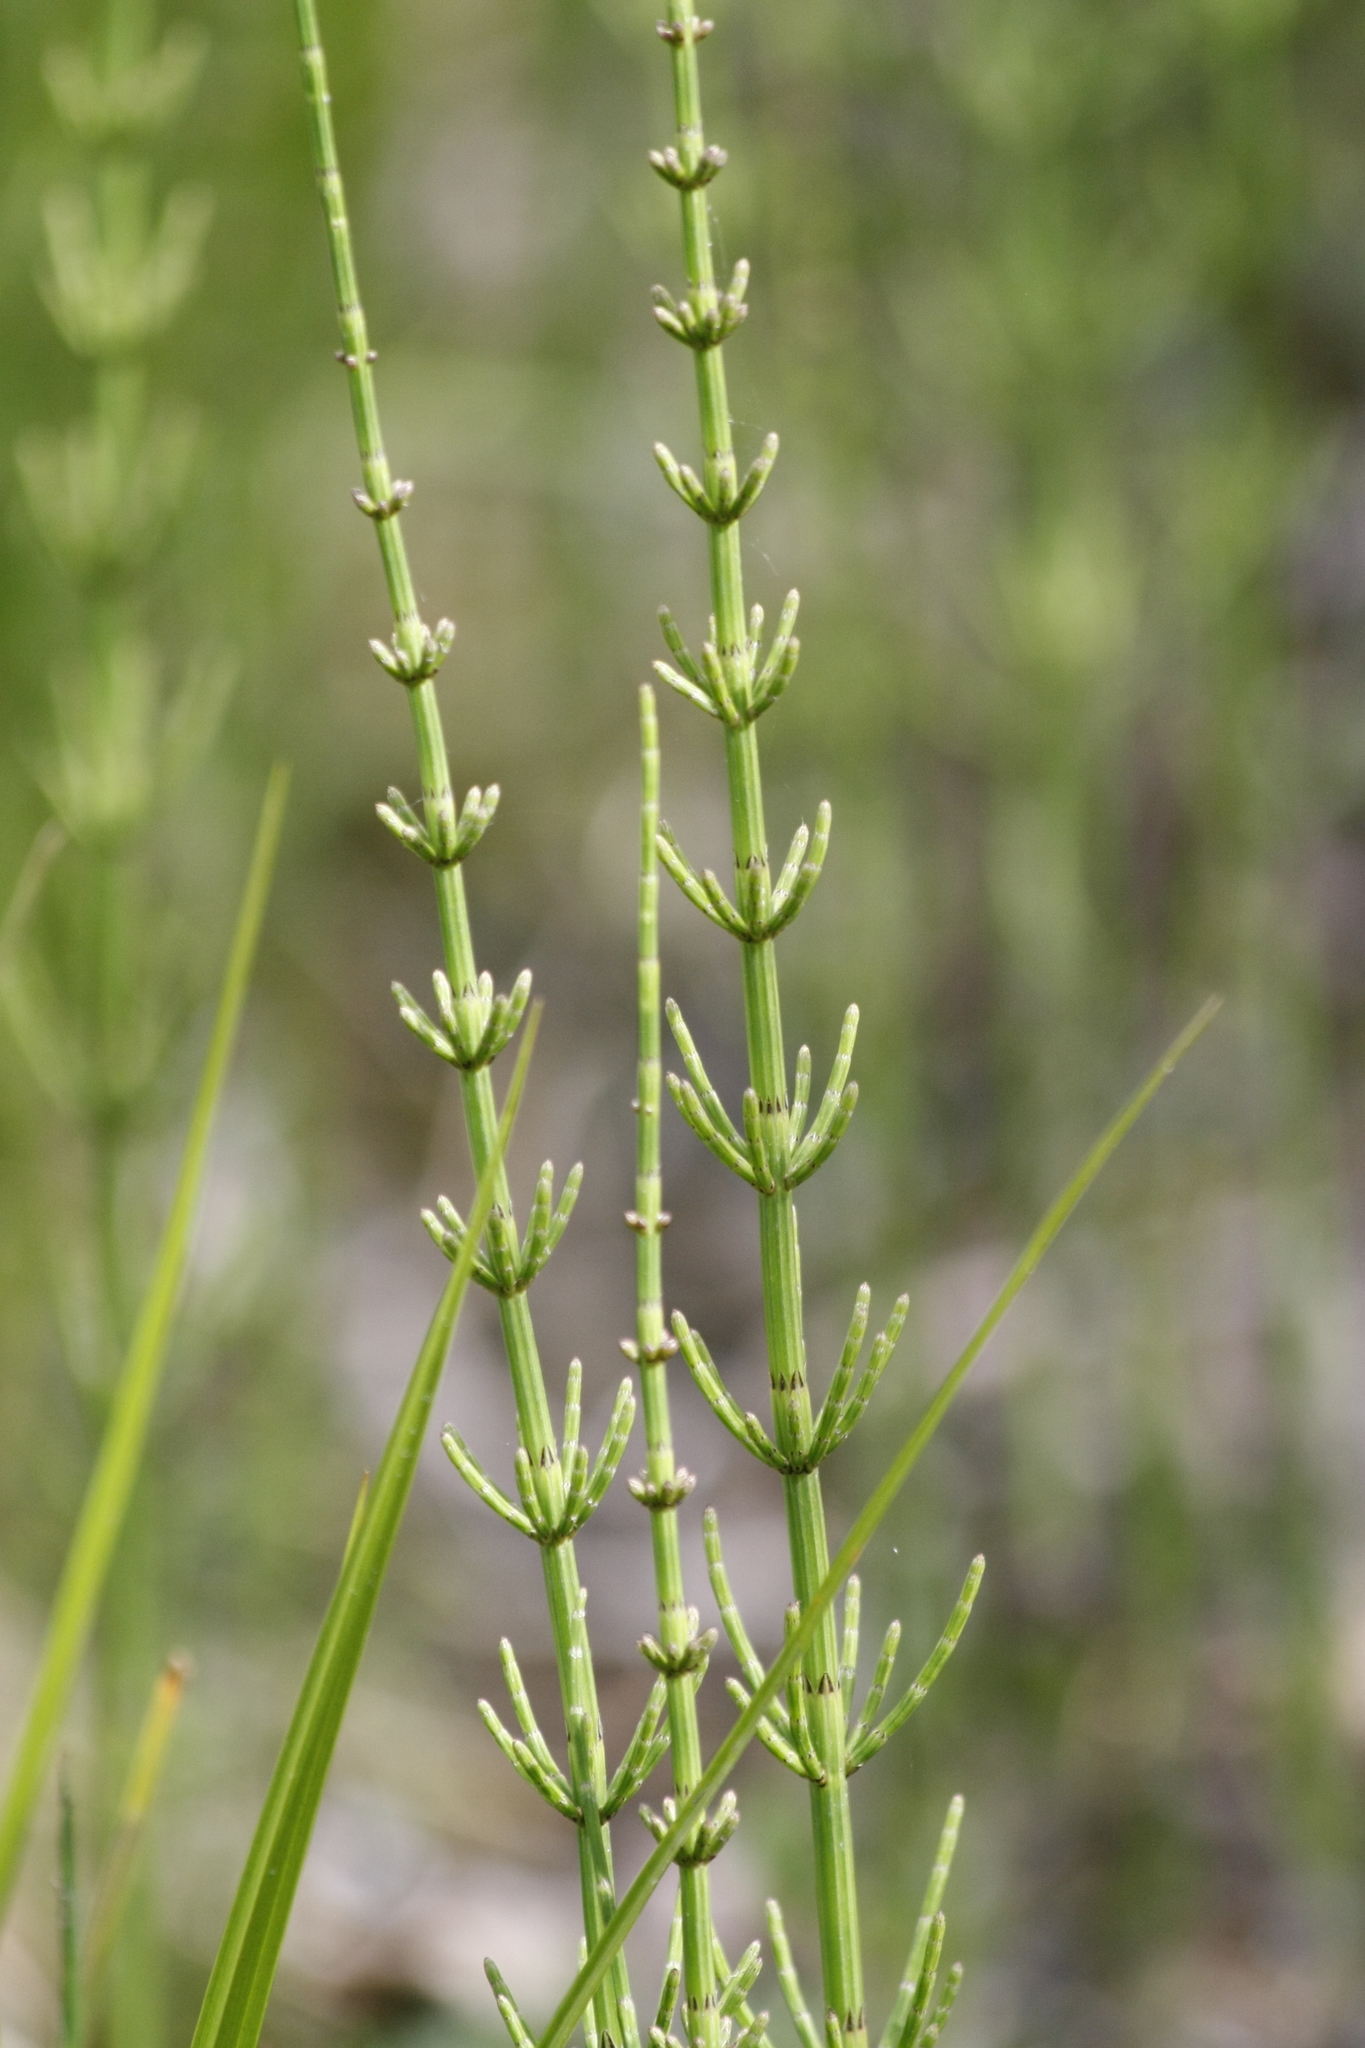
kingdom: Plantae
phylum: Tracheophyta
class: Polypodiopsida
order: Equisetales
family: Equisetaceae
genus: Equisetum
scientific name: Equisetum palustre
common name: Marsh horsetail
